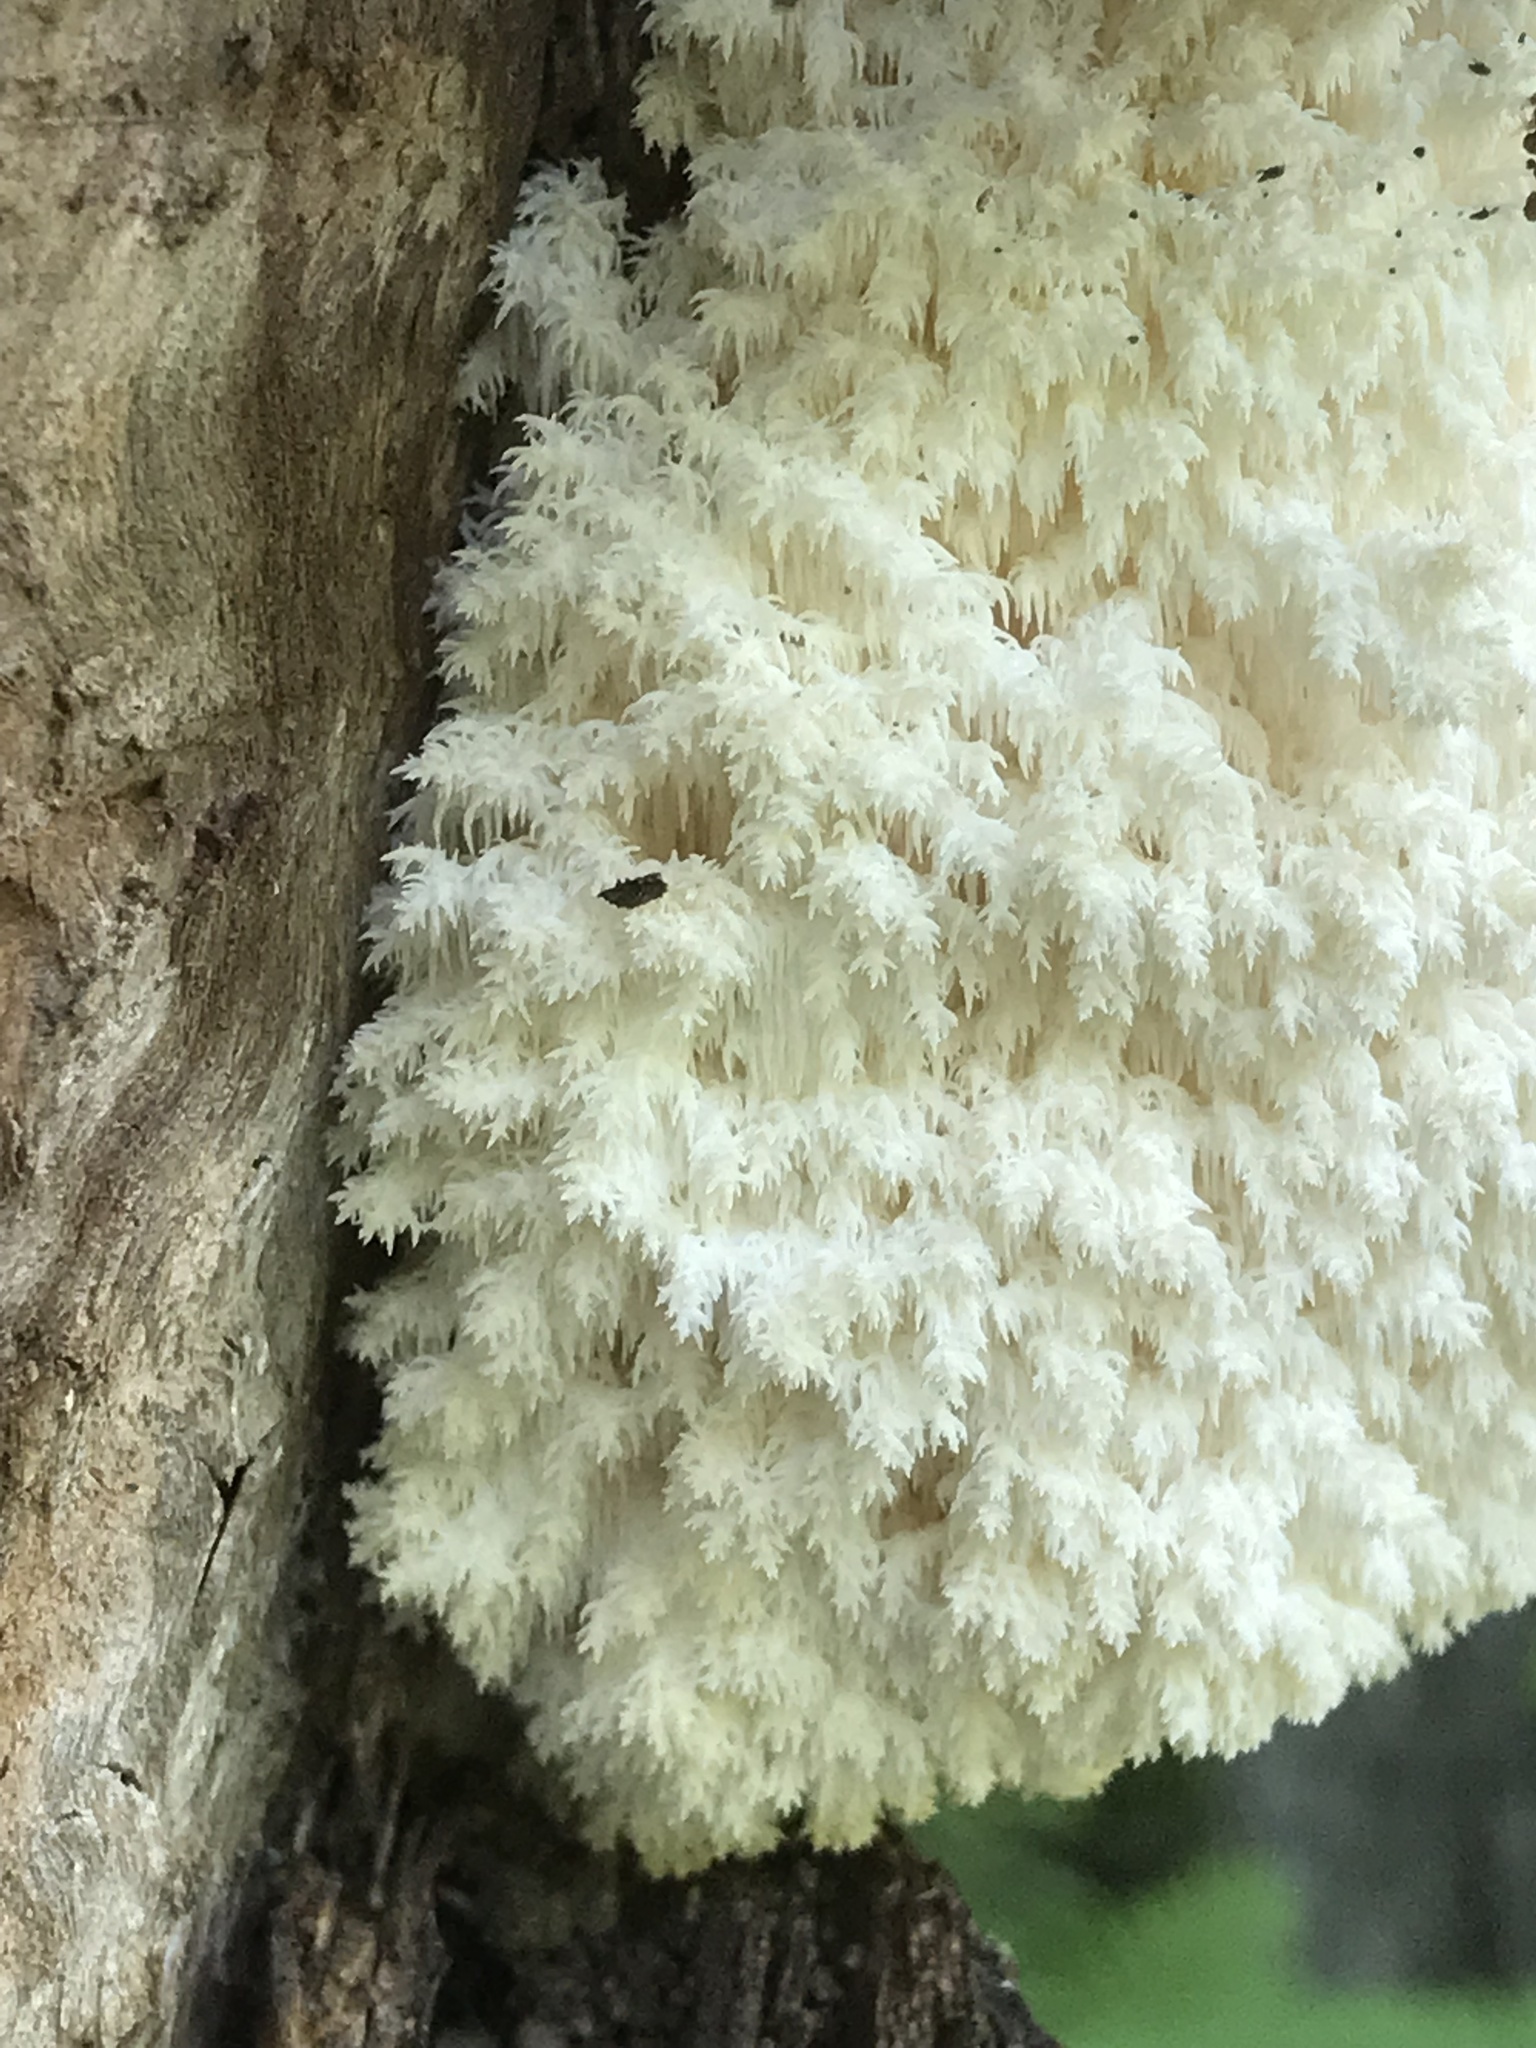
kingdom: Fungi
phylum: Basidiomycota
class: Agaricomycetes
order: Russulales
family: Hericiaceae
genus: Hericium
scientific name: Hericium coralloides
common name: Coral tooth
